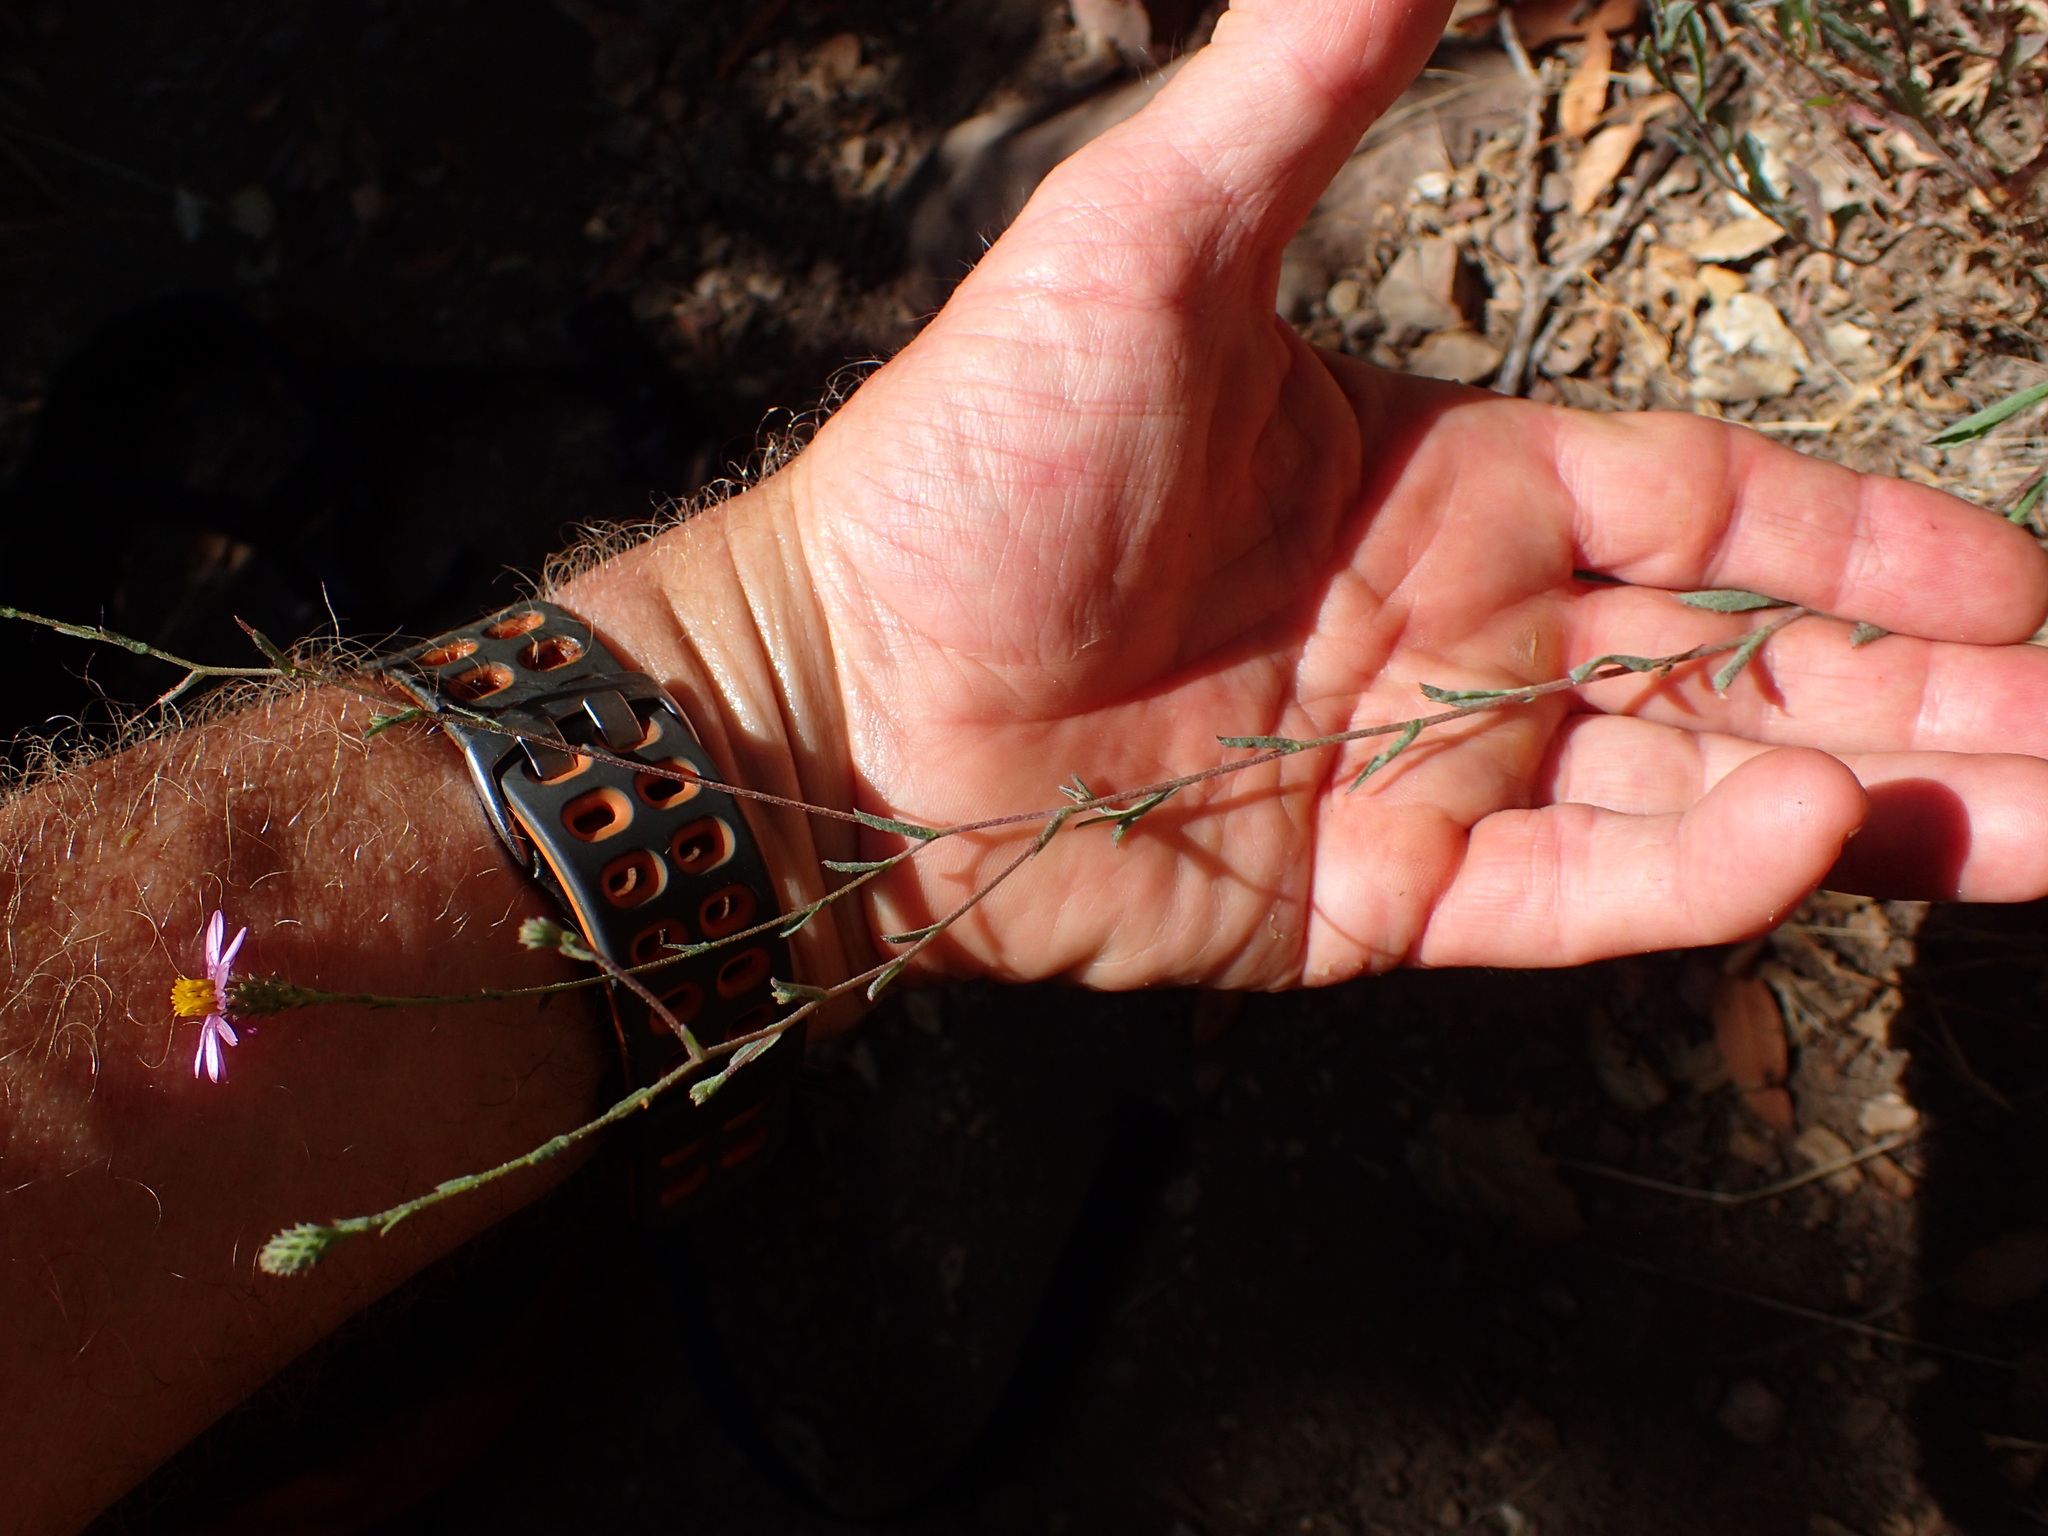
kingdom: Plantae
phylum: Tracheophyta
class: Magnoliopsida
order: Asterales
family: Asteraceae
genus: Corethrogyne
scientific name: Corethrogyne filaginifolia
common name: Sand-aster
